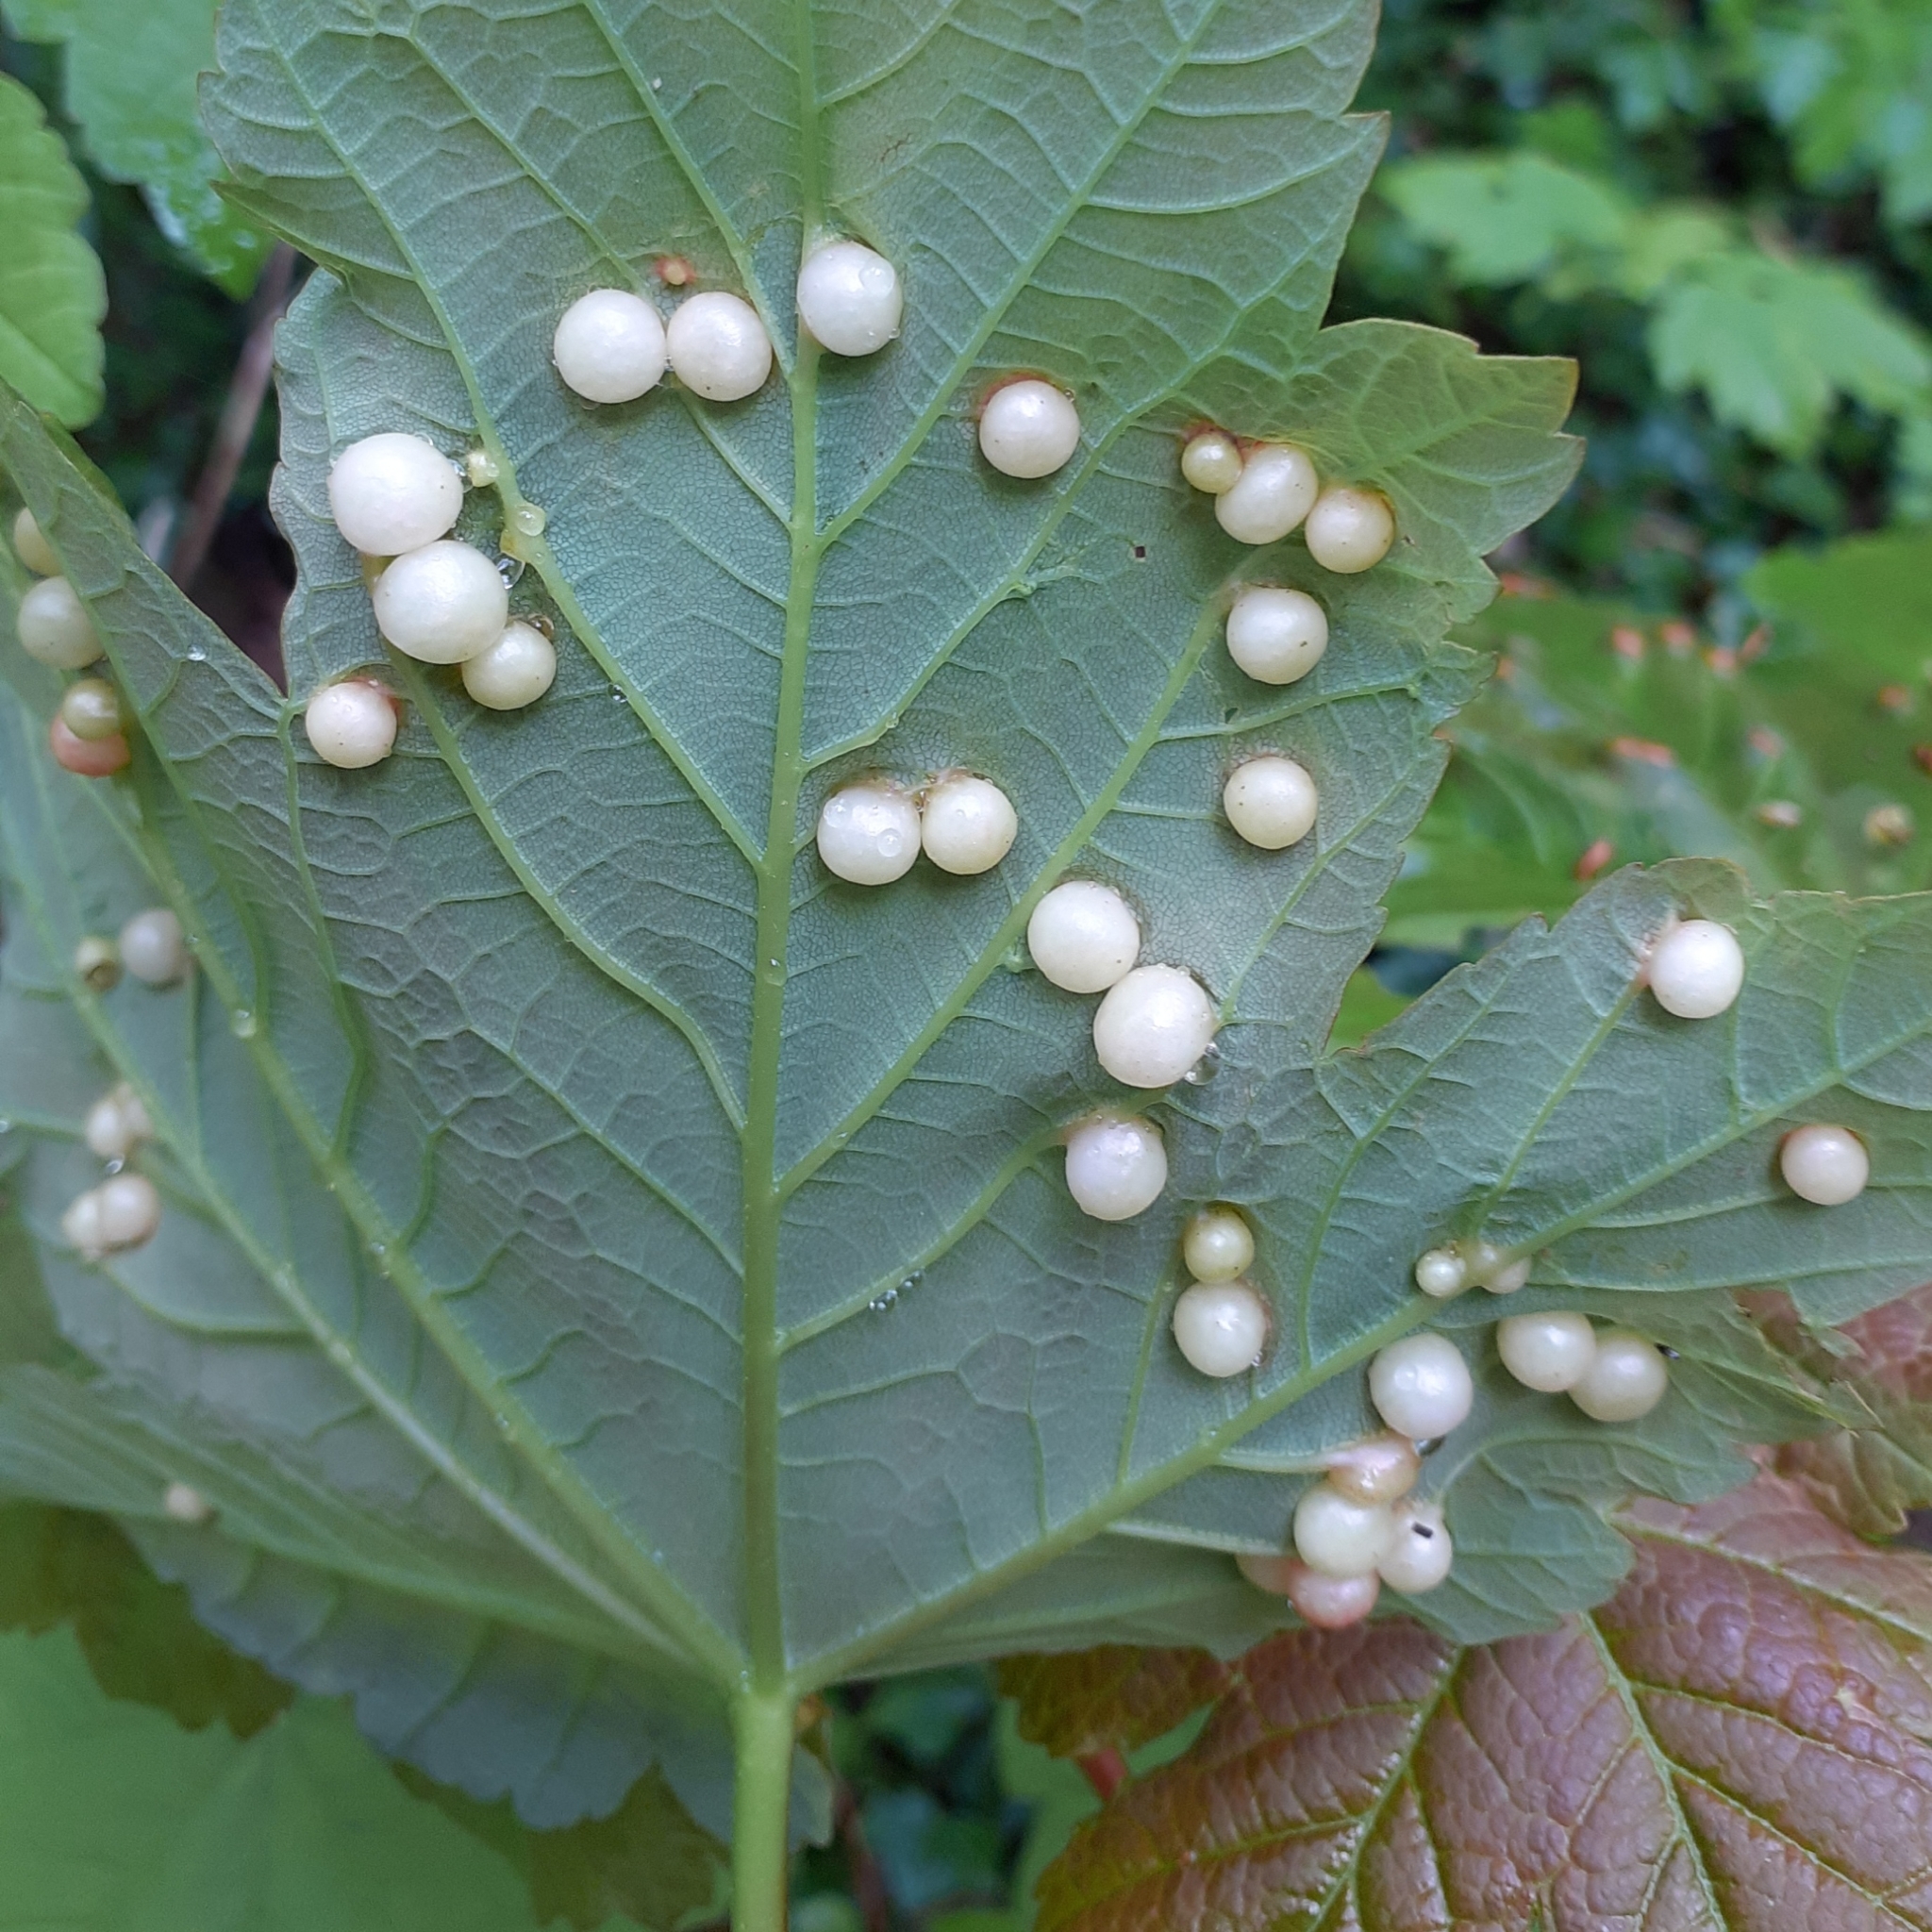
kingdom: Animalia
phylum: Arthropoda
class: Insecta
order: Hymenoptera
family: Cynipidae
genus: Pediaspis
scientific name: Pediaspis aceris
